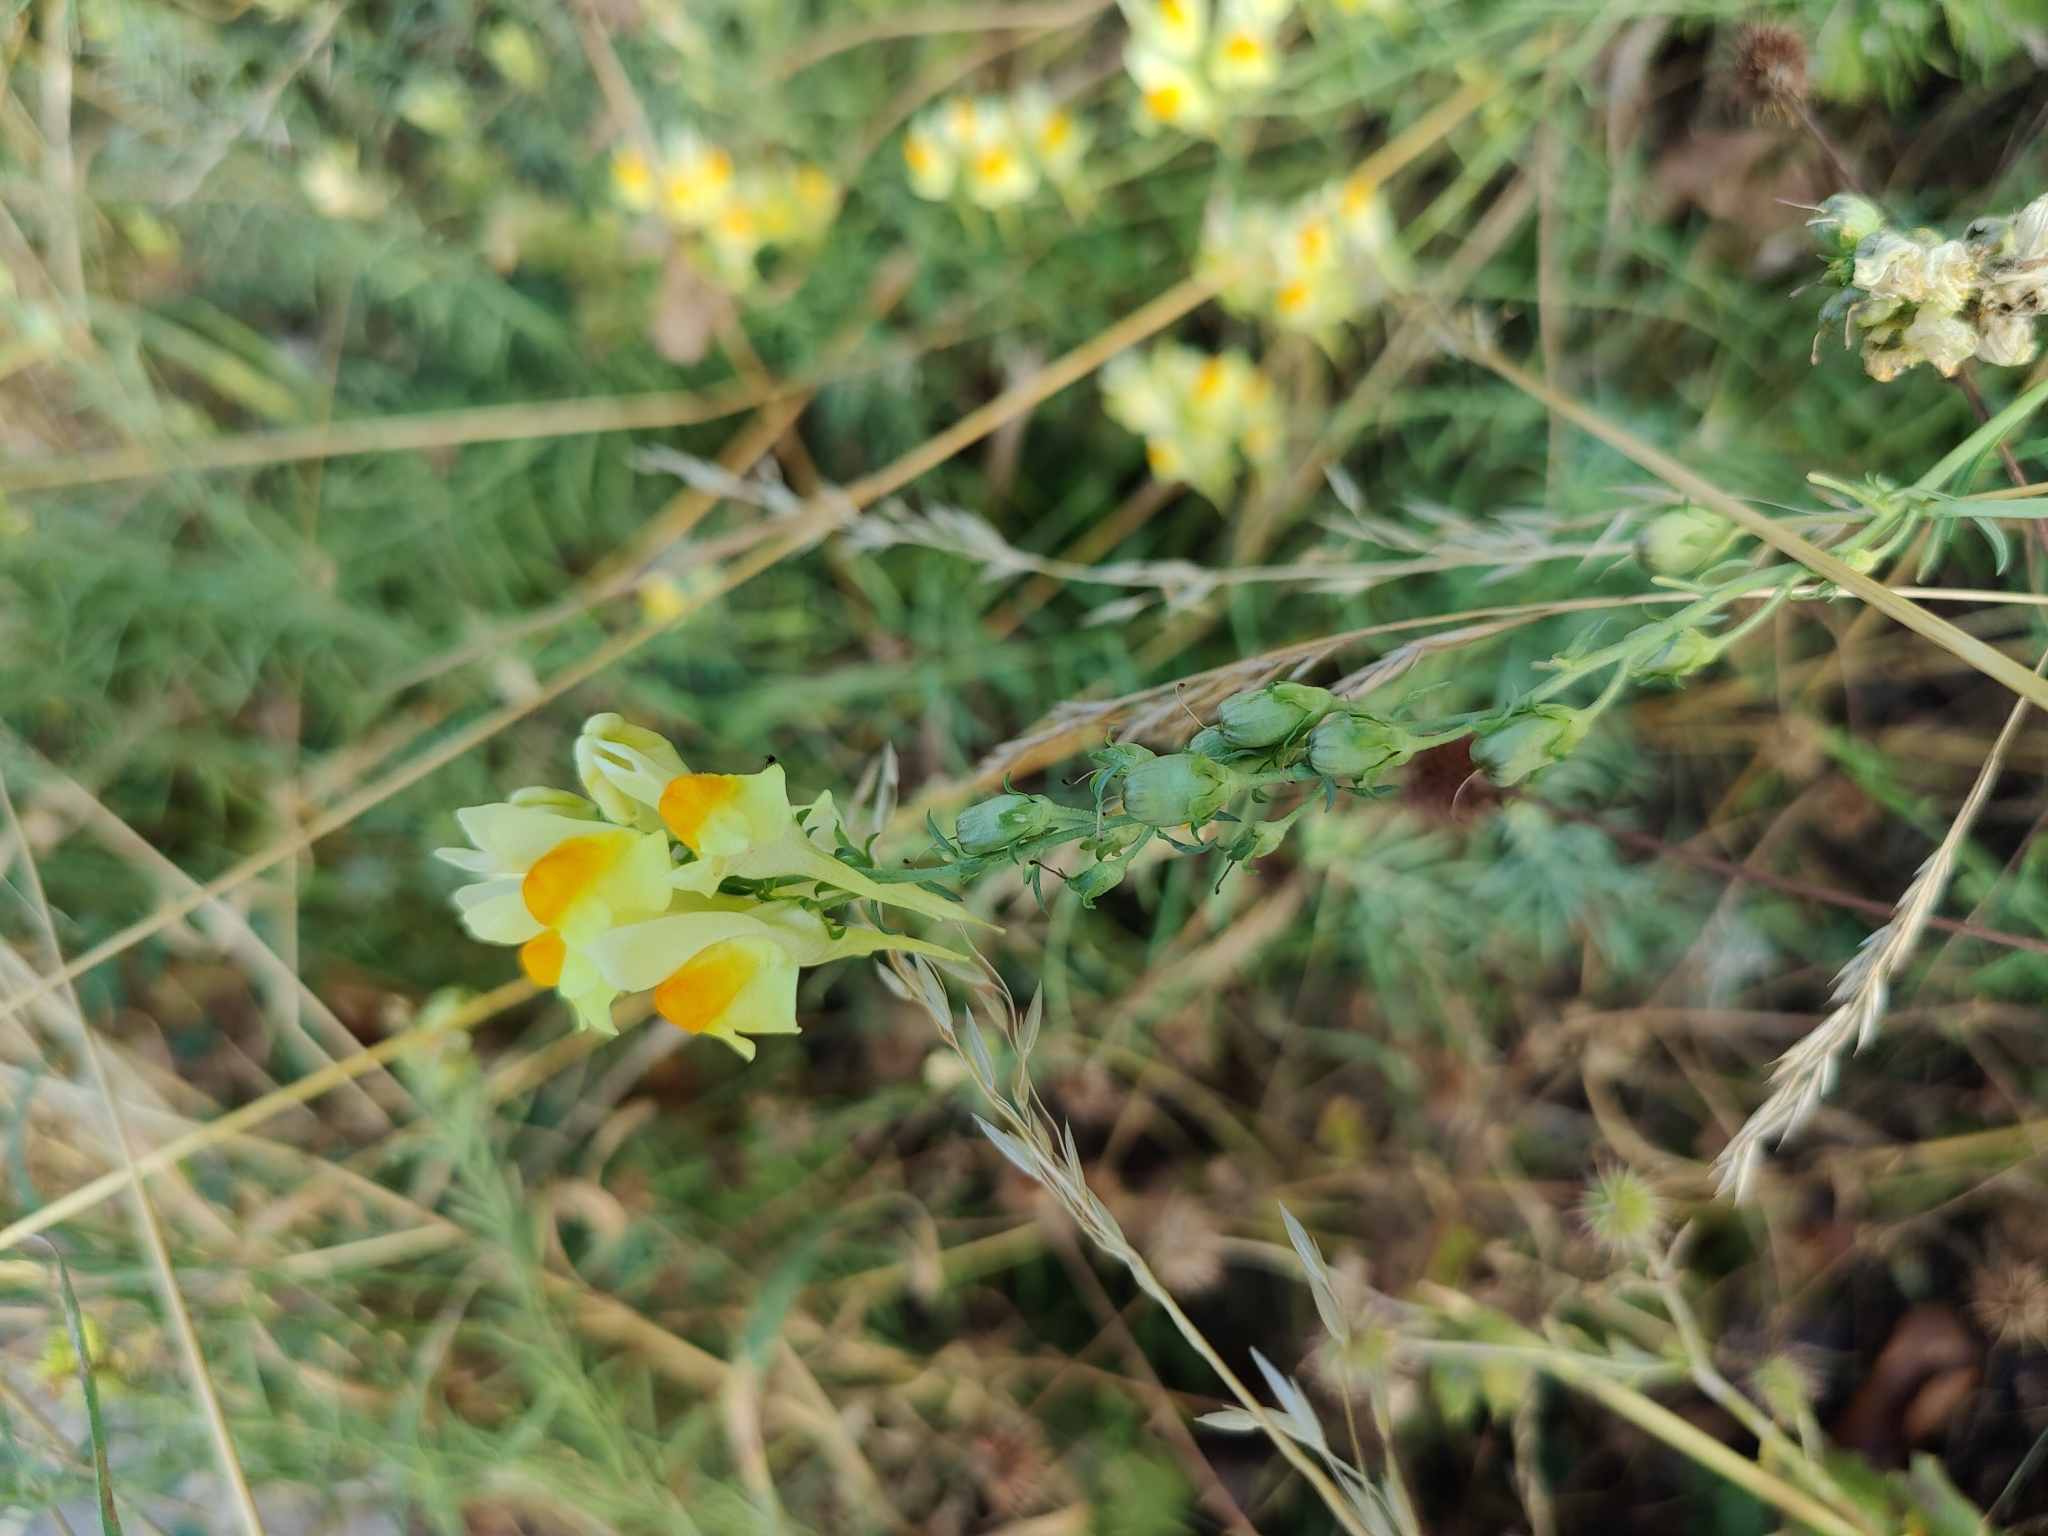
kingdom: Plantae
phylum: Tracheophyta
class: Magnoliopsida
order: Lamiales
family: Plantaginaceae
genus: Linaria
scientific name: Linaria vulgaris
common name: Butter and eggs
